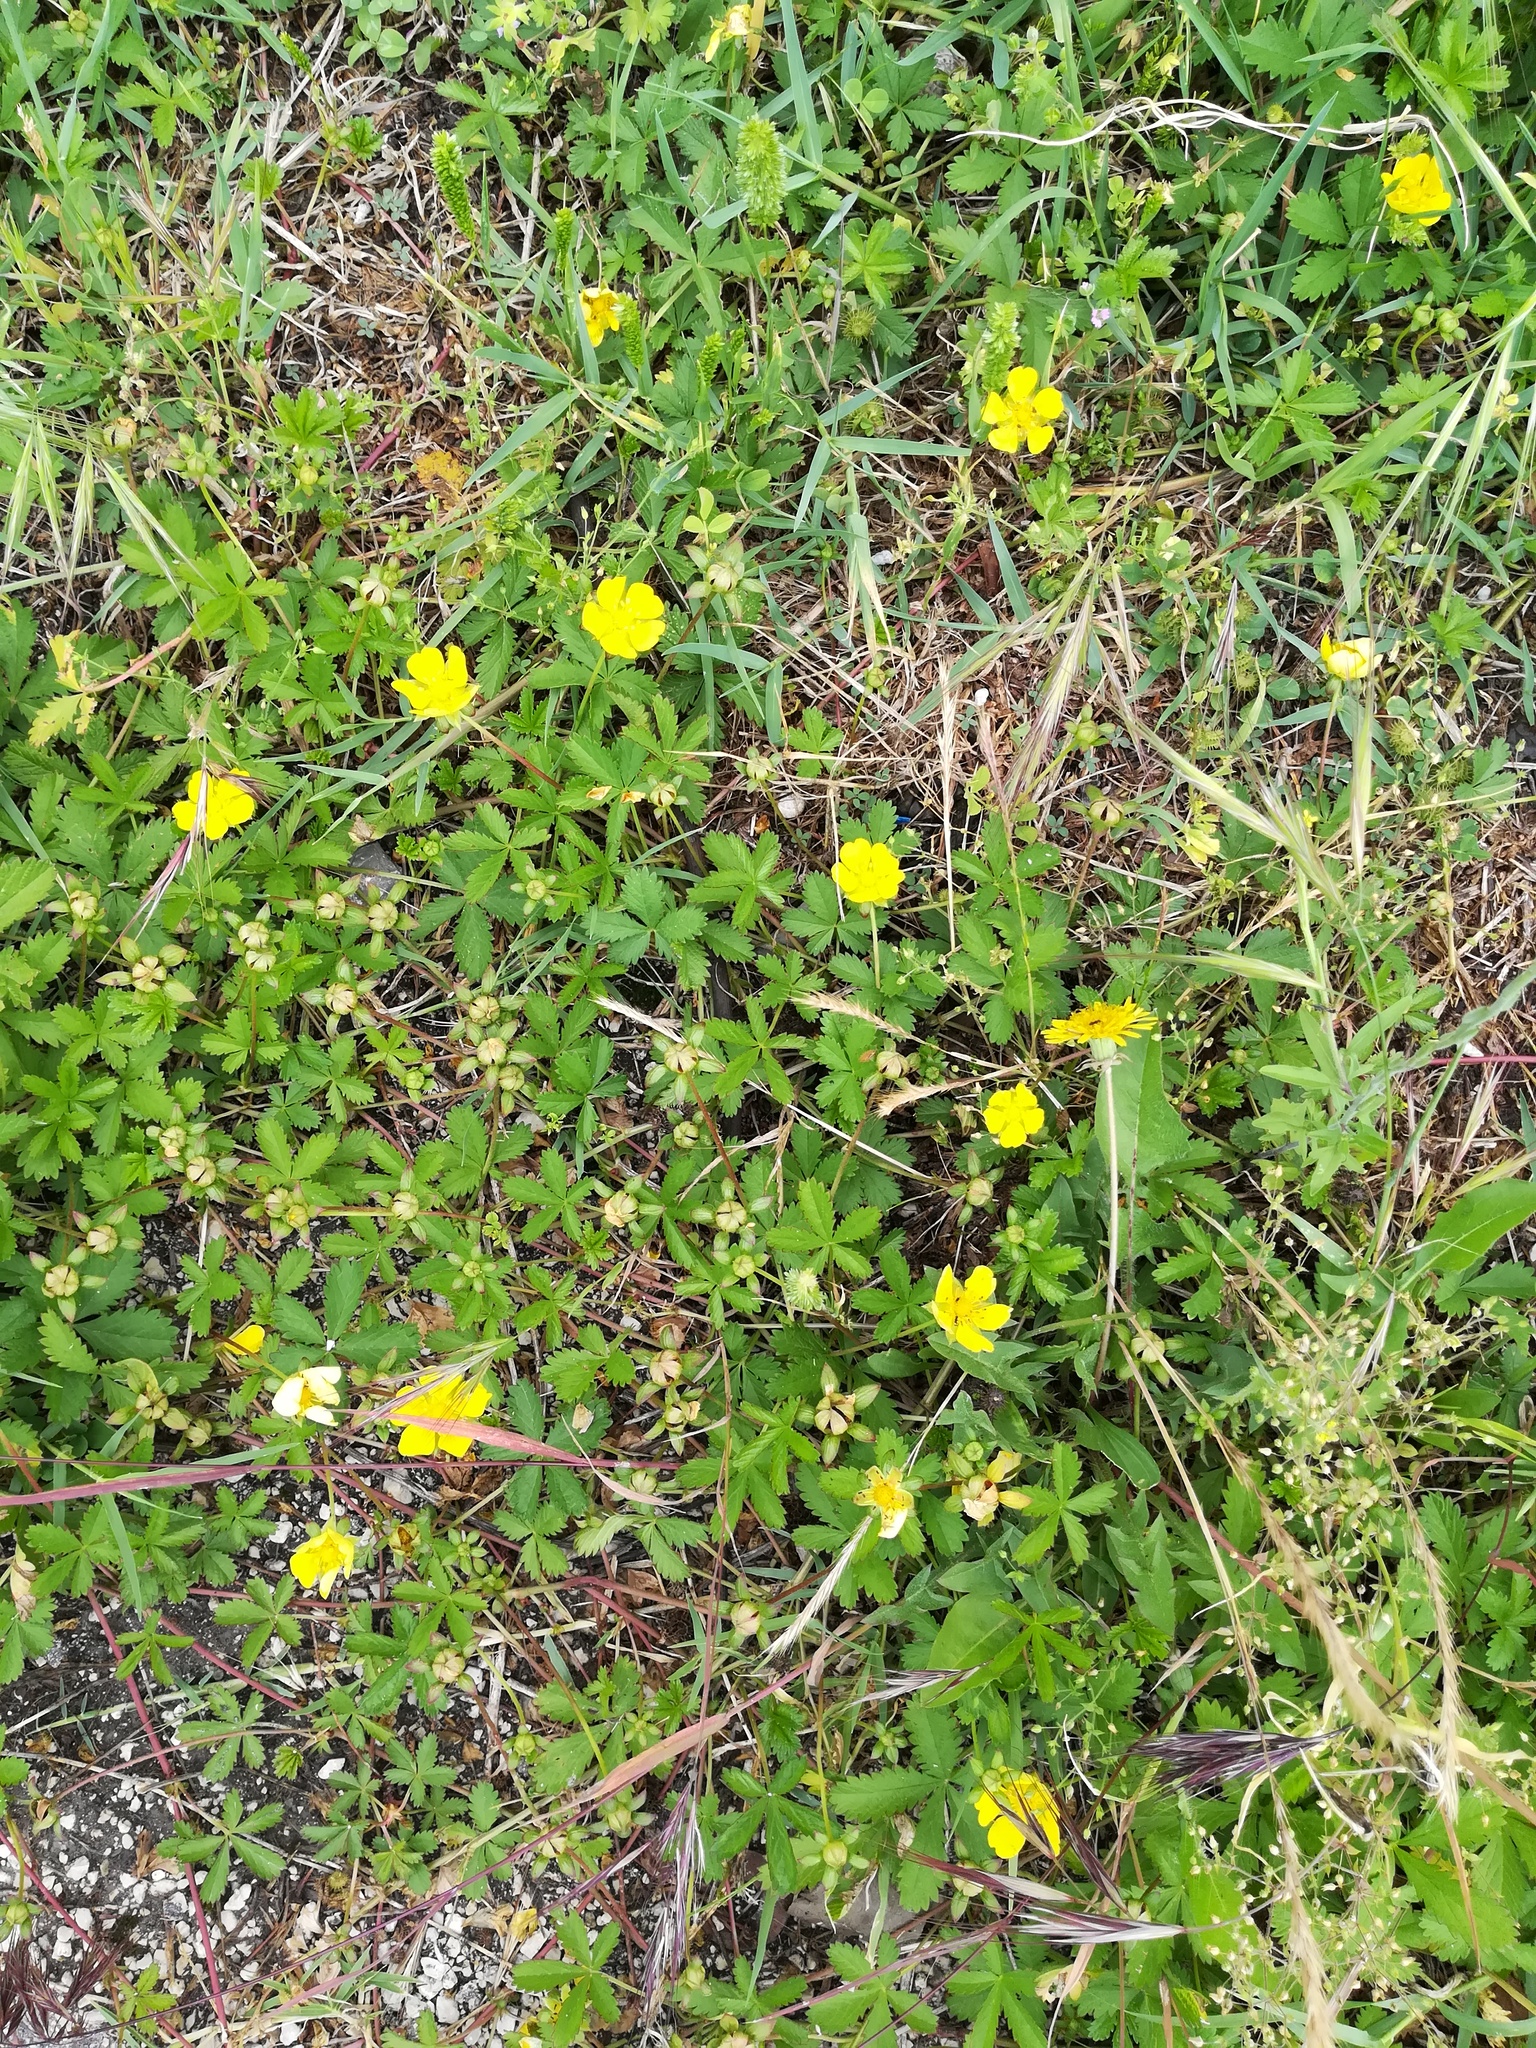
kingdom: Plantae
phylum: Tracheophyta
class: Magnoliopsida
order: Rosales
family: Rosaceae
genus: Potentilla
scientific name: Potentilla reptans
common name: Creeping cinquefoil
